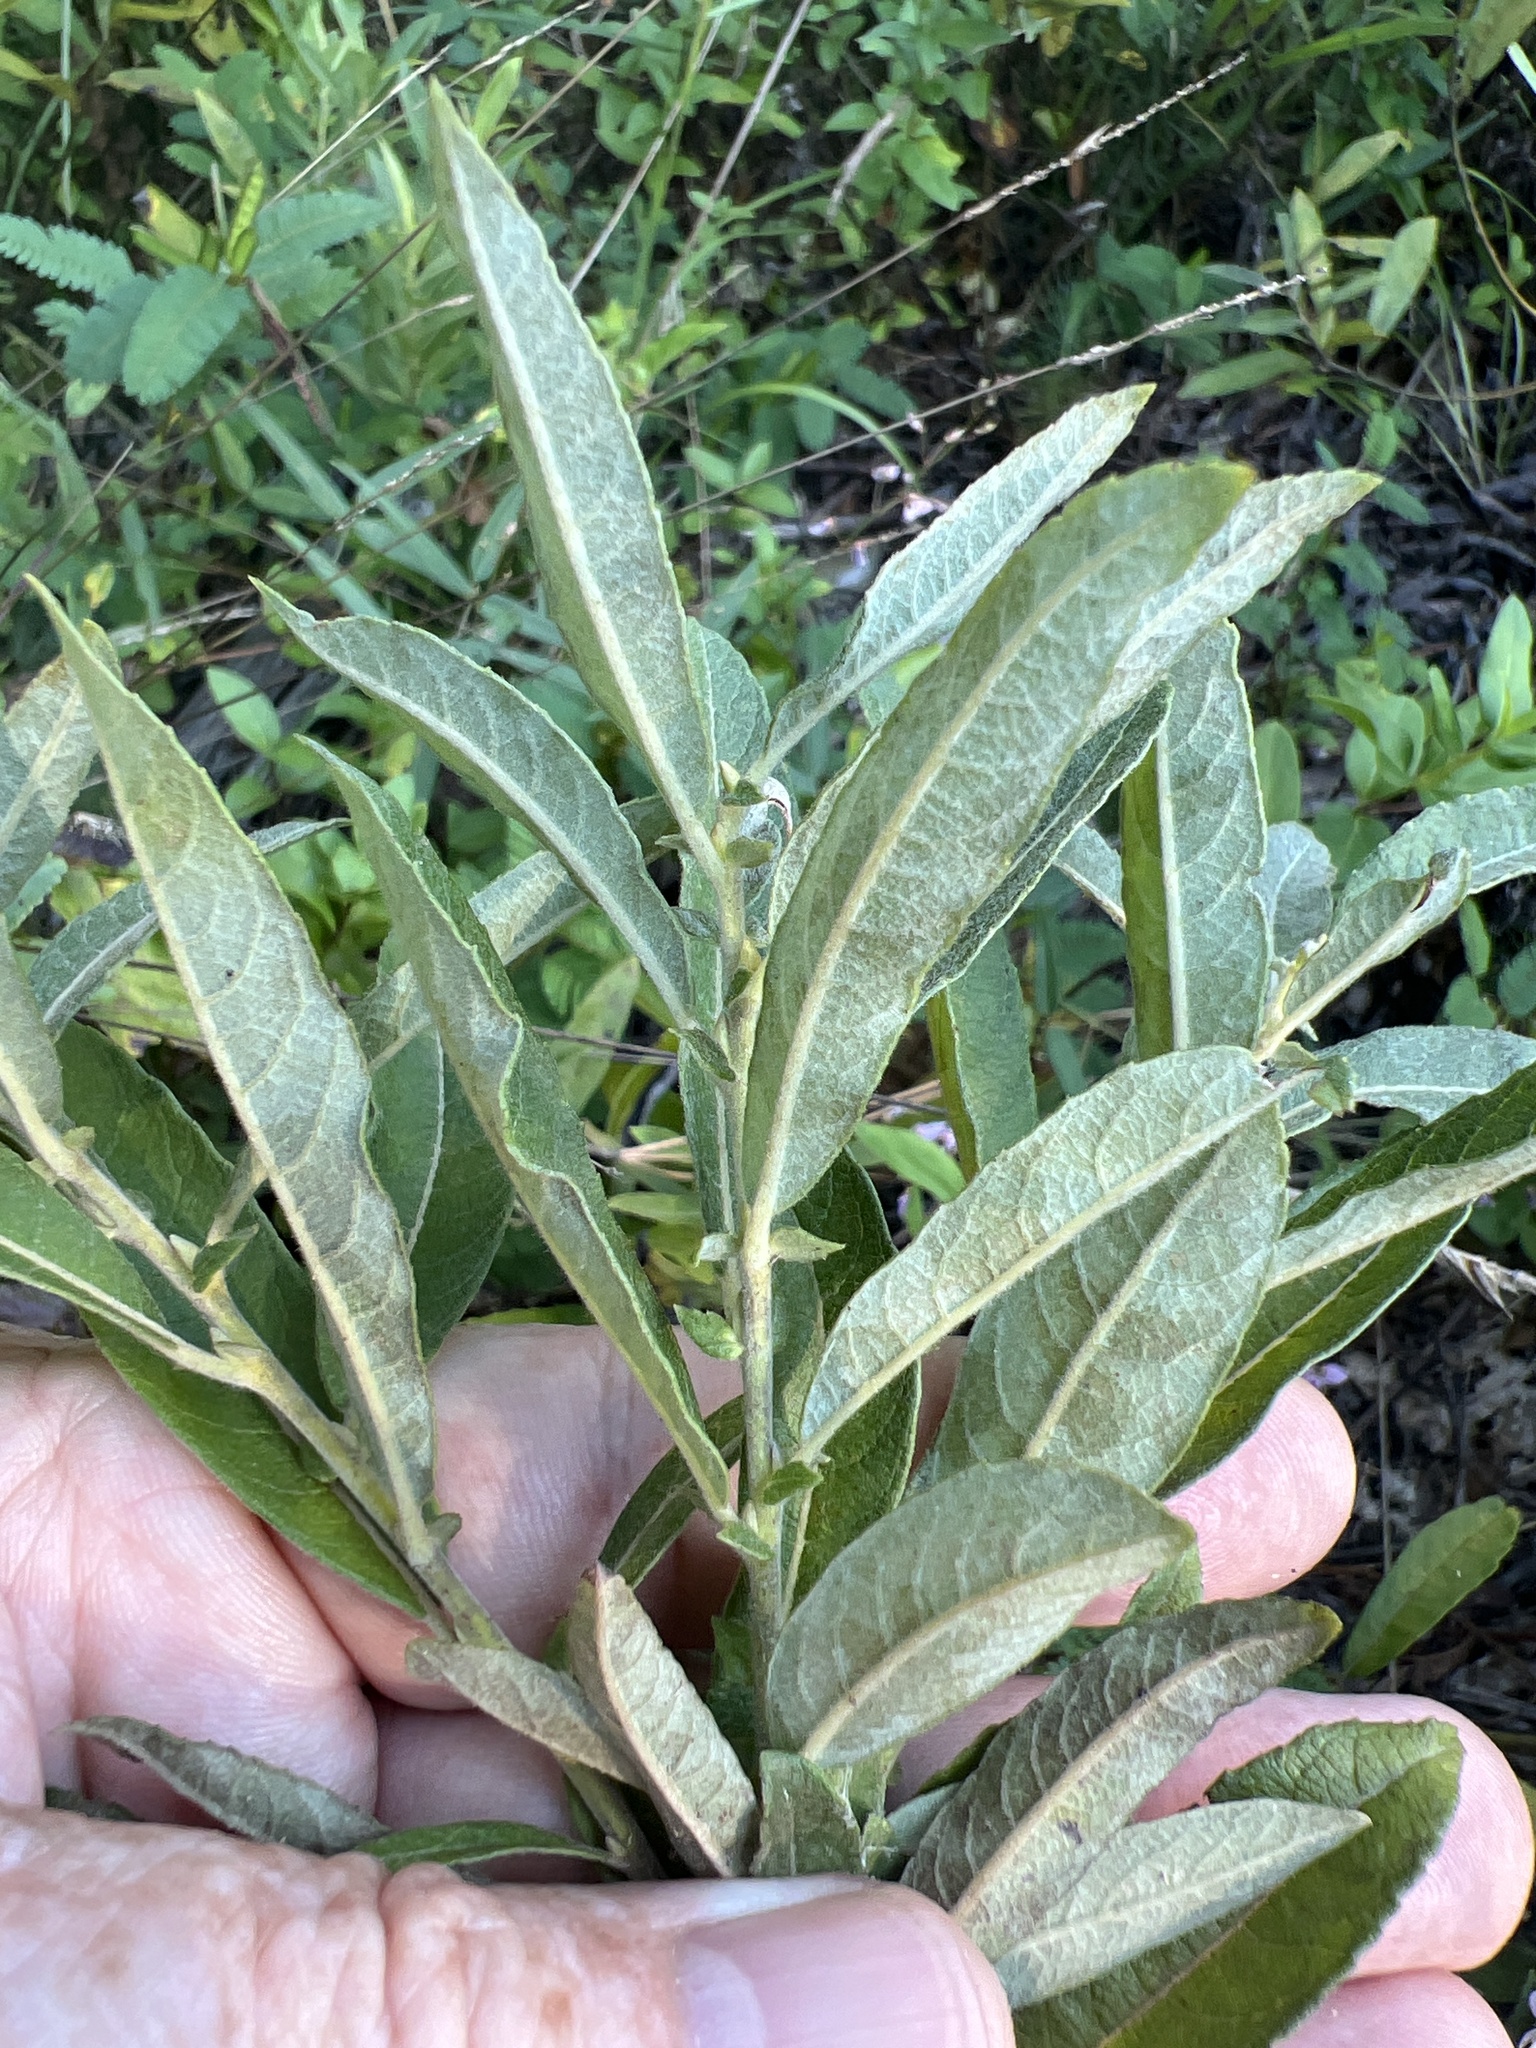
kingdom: Plantae
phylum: Tracheophyta
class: Magnoliopsida
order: Malpighiales
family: Salicaceae
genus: Salix
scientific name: Salix humilis
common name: Prairie willow
